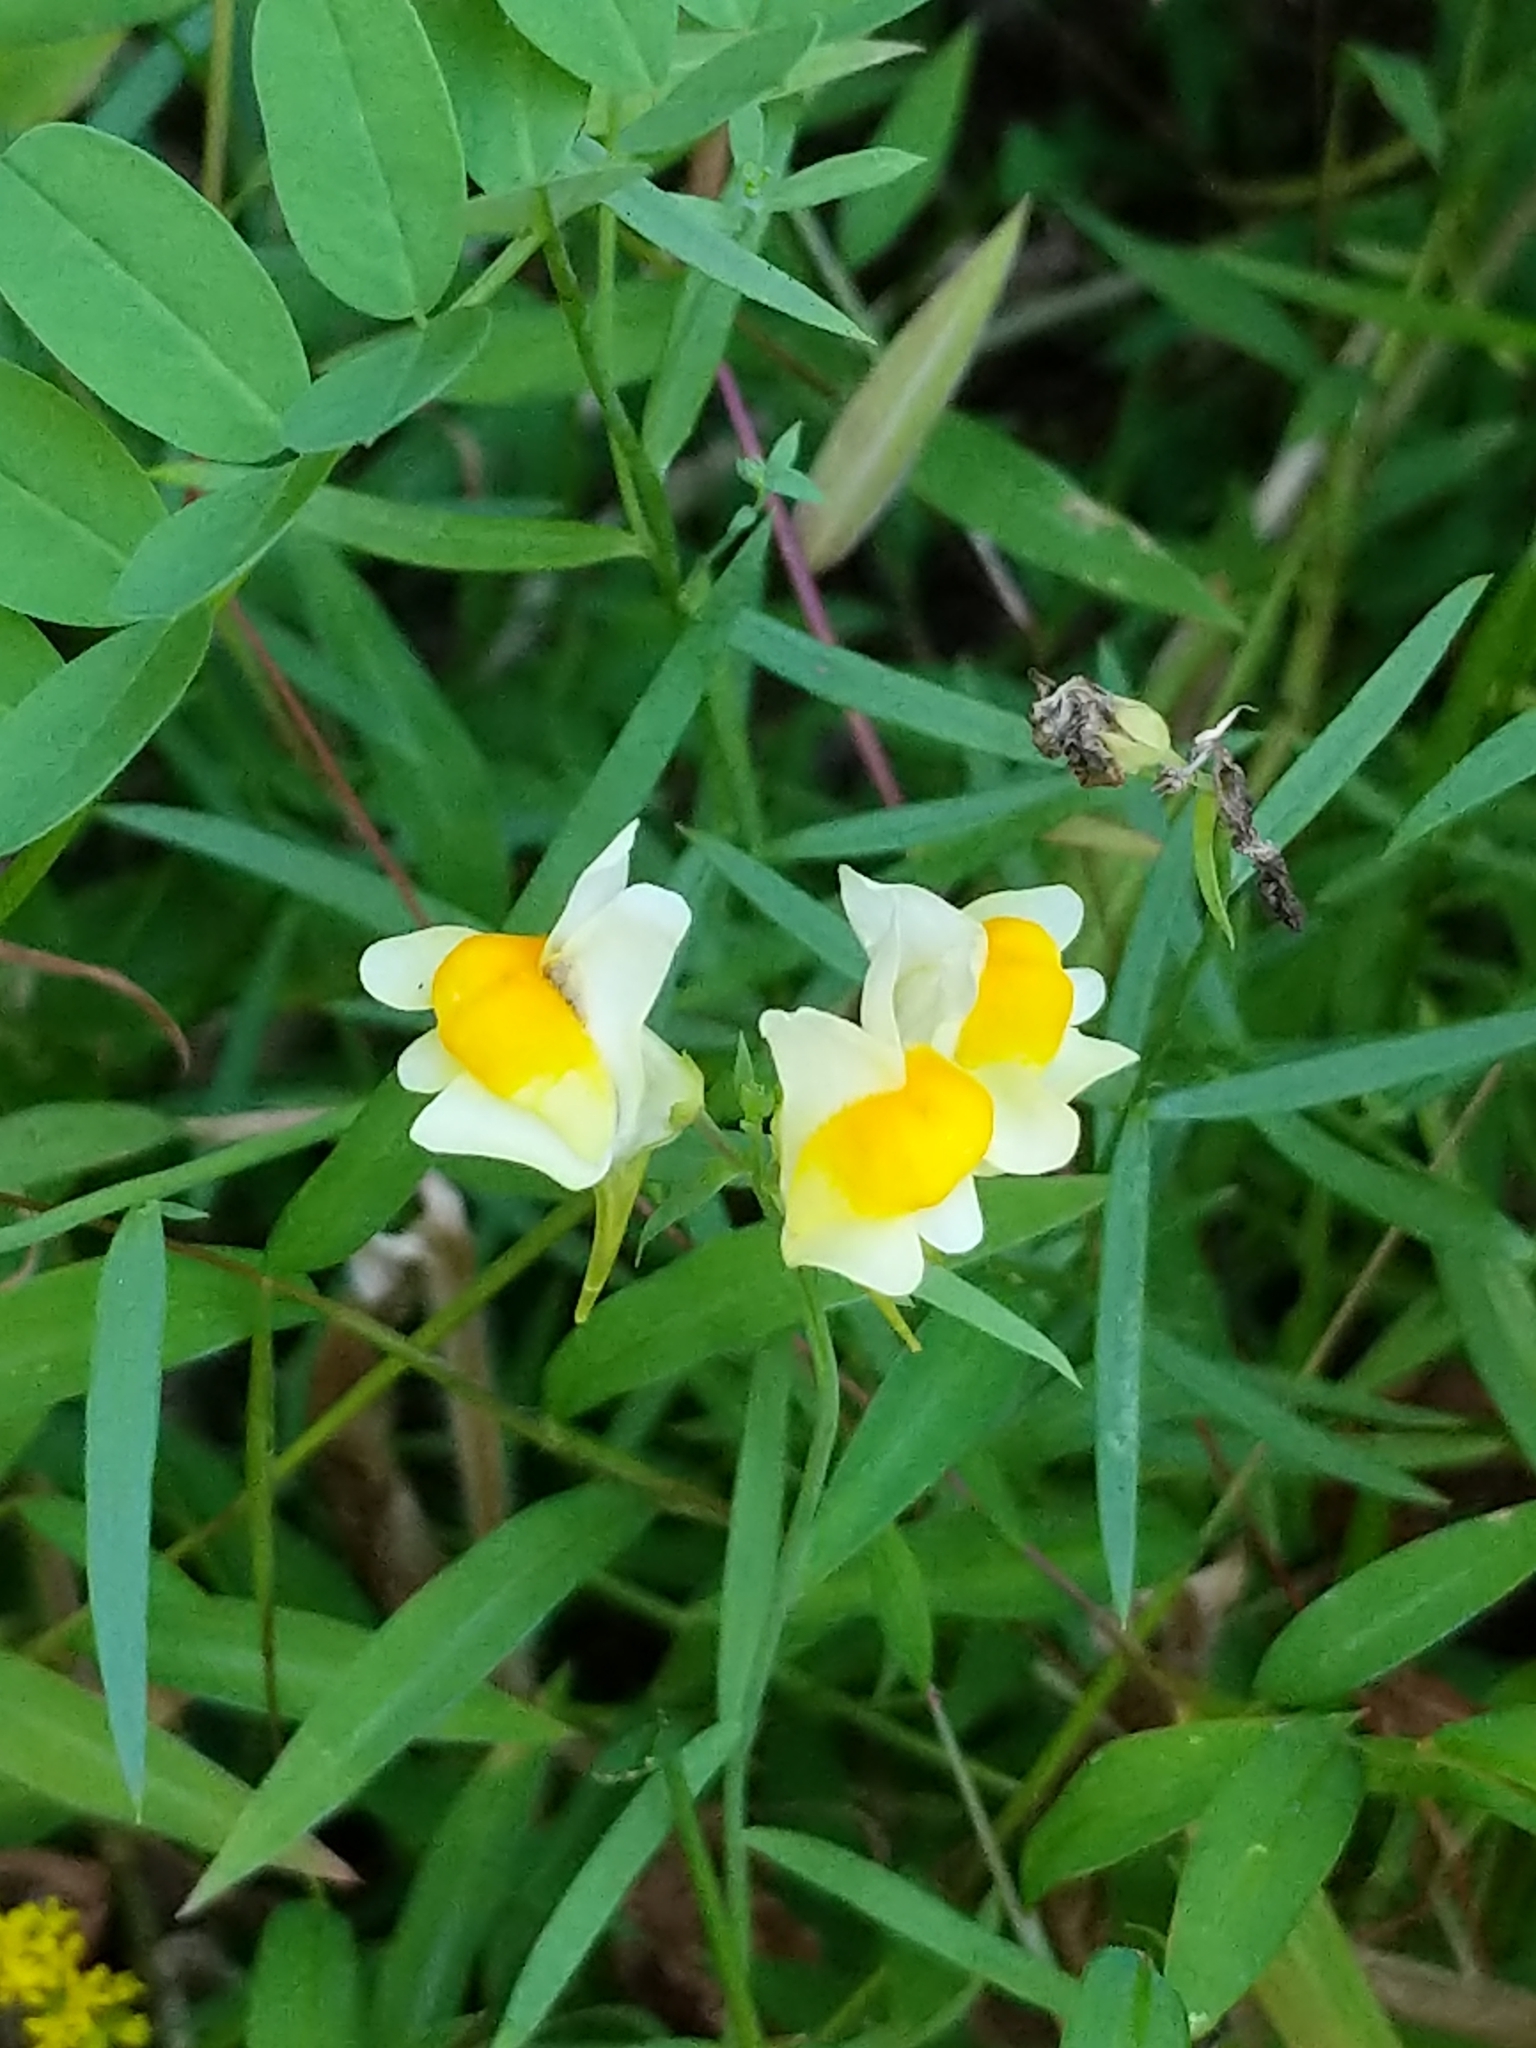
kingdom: Plantae
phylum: Tracheophyta
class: Magnoliopsida
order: Lamiales
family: Plantaginaceae
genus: Linaria
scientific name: Linaria vulgaris
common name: Butter and eggs
